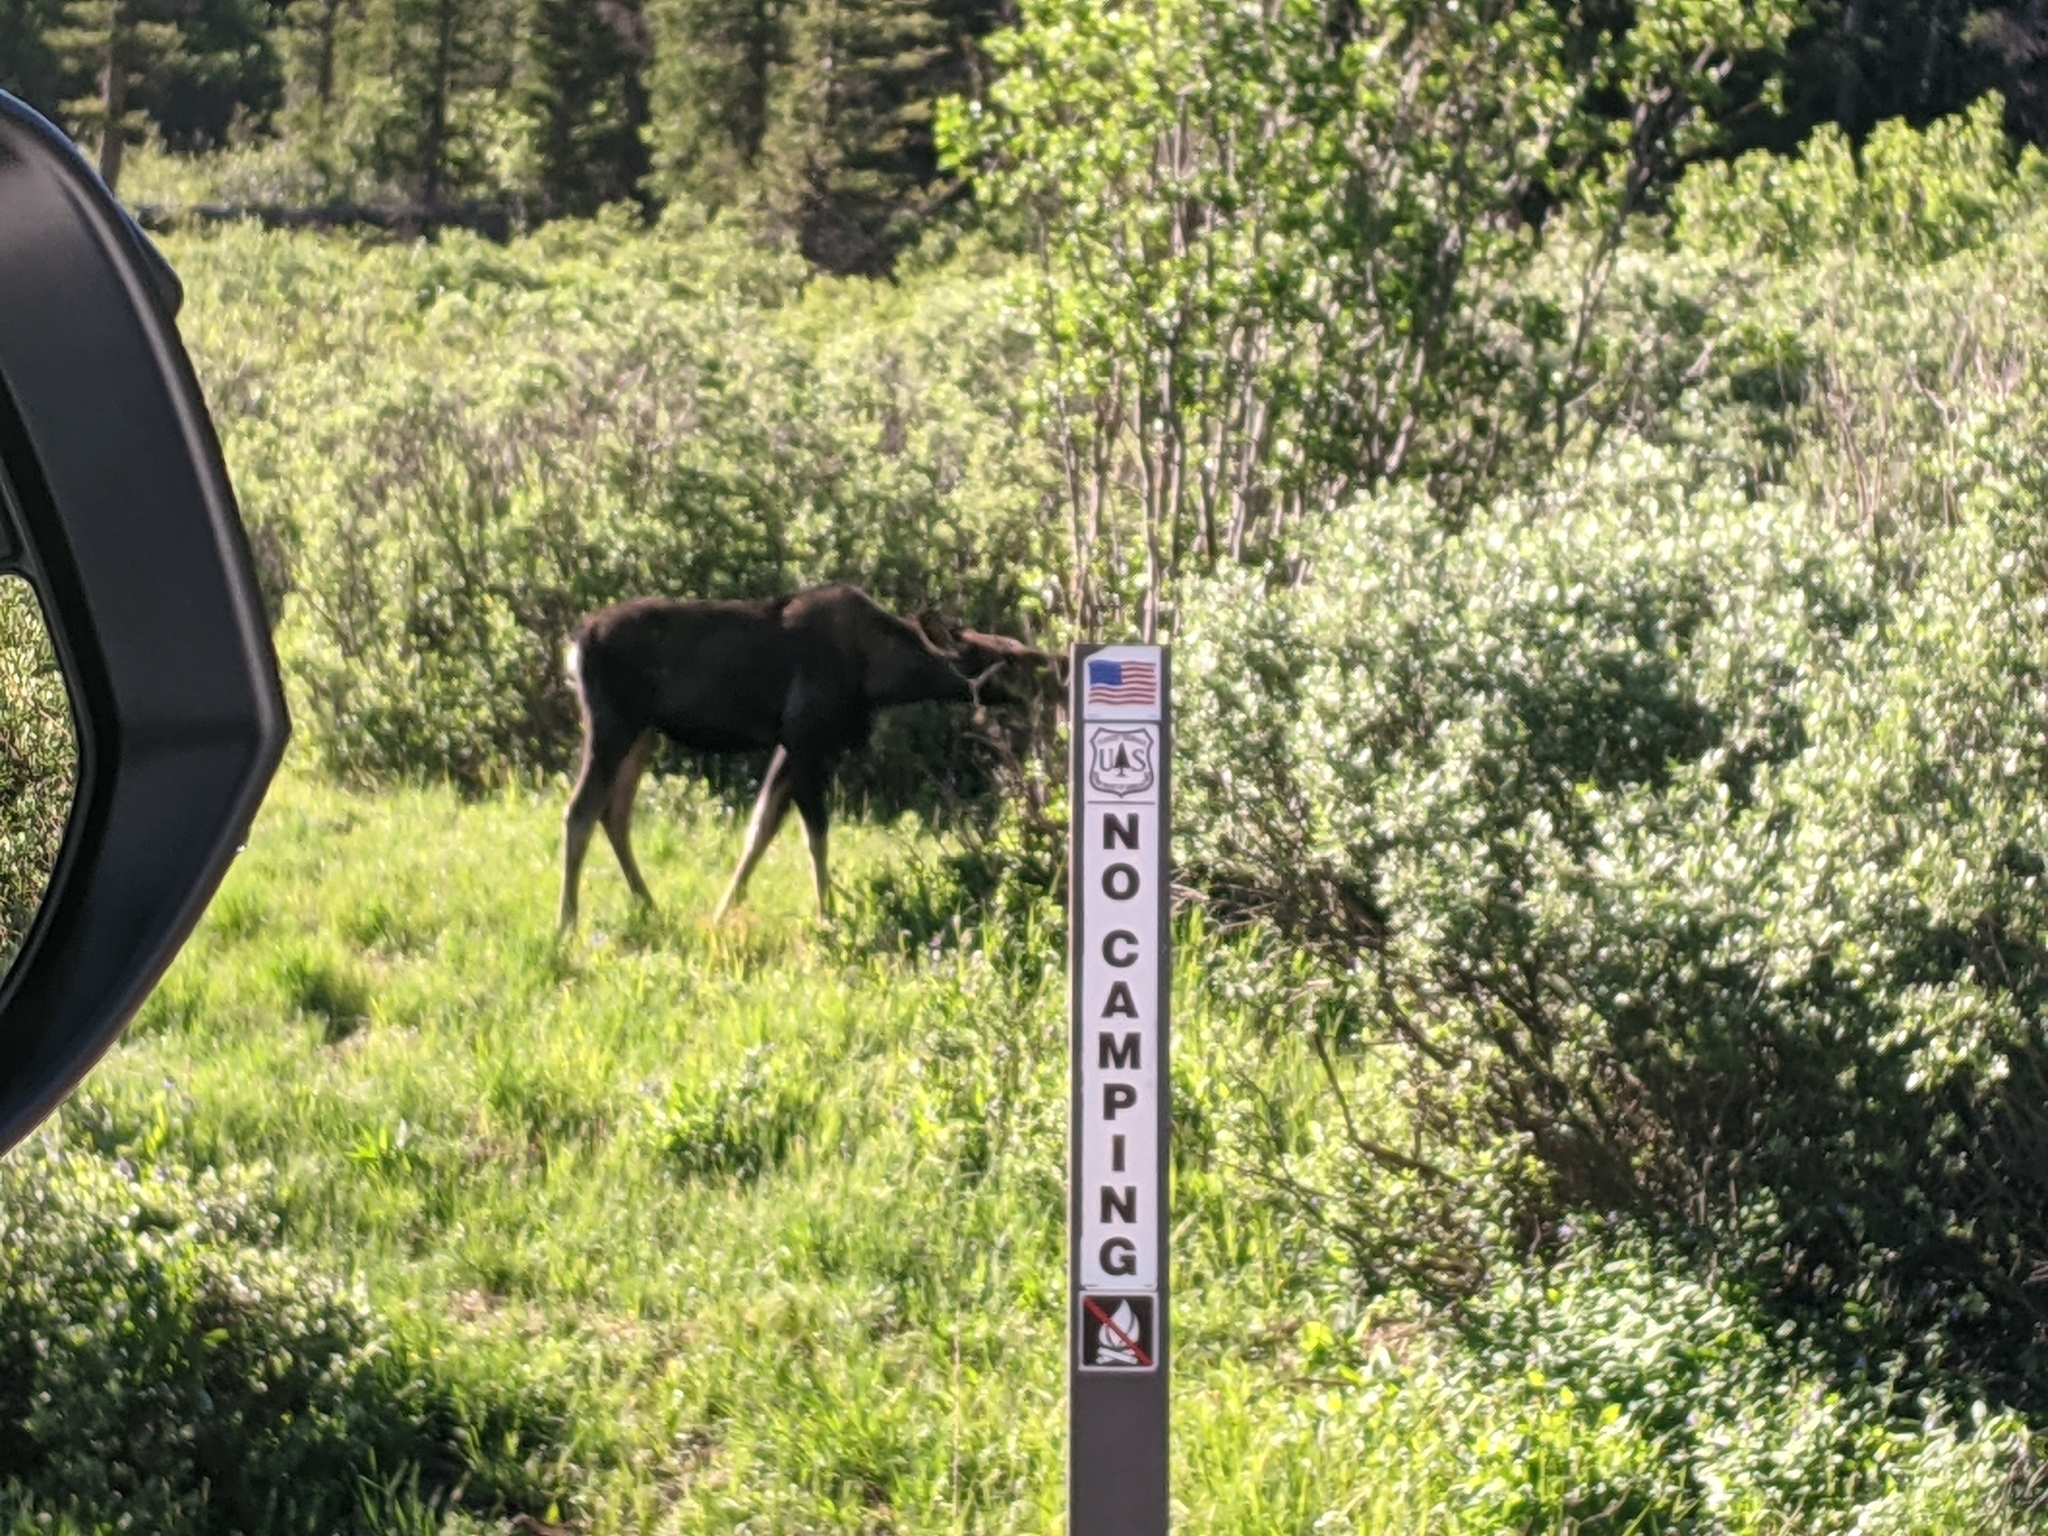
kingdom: Animalia
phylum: Chordata
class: Mammalia
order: Artiodactyla
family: Cervidae
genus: Alces
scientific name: Alces alces
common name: Moose
